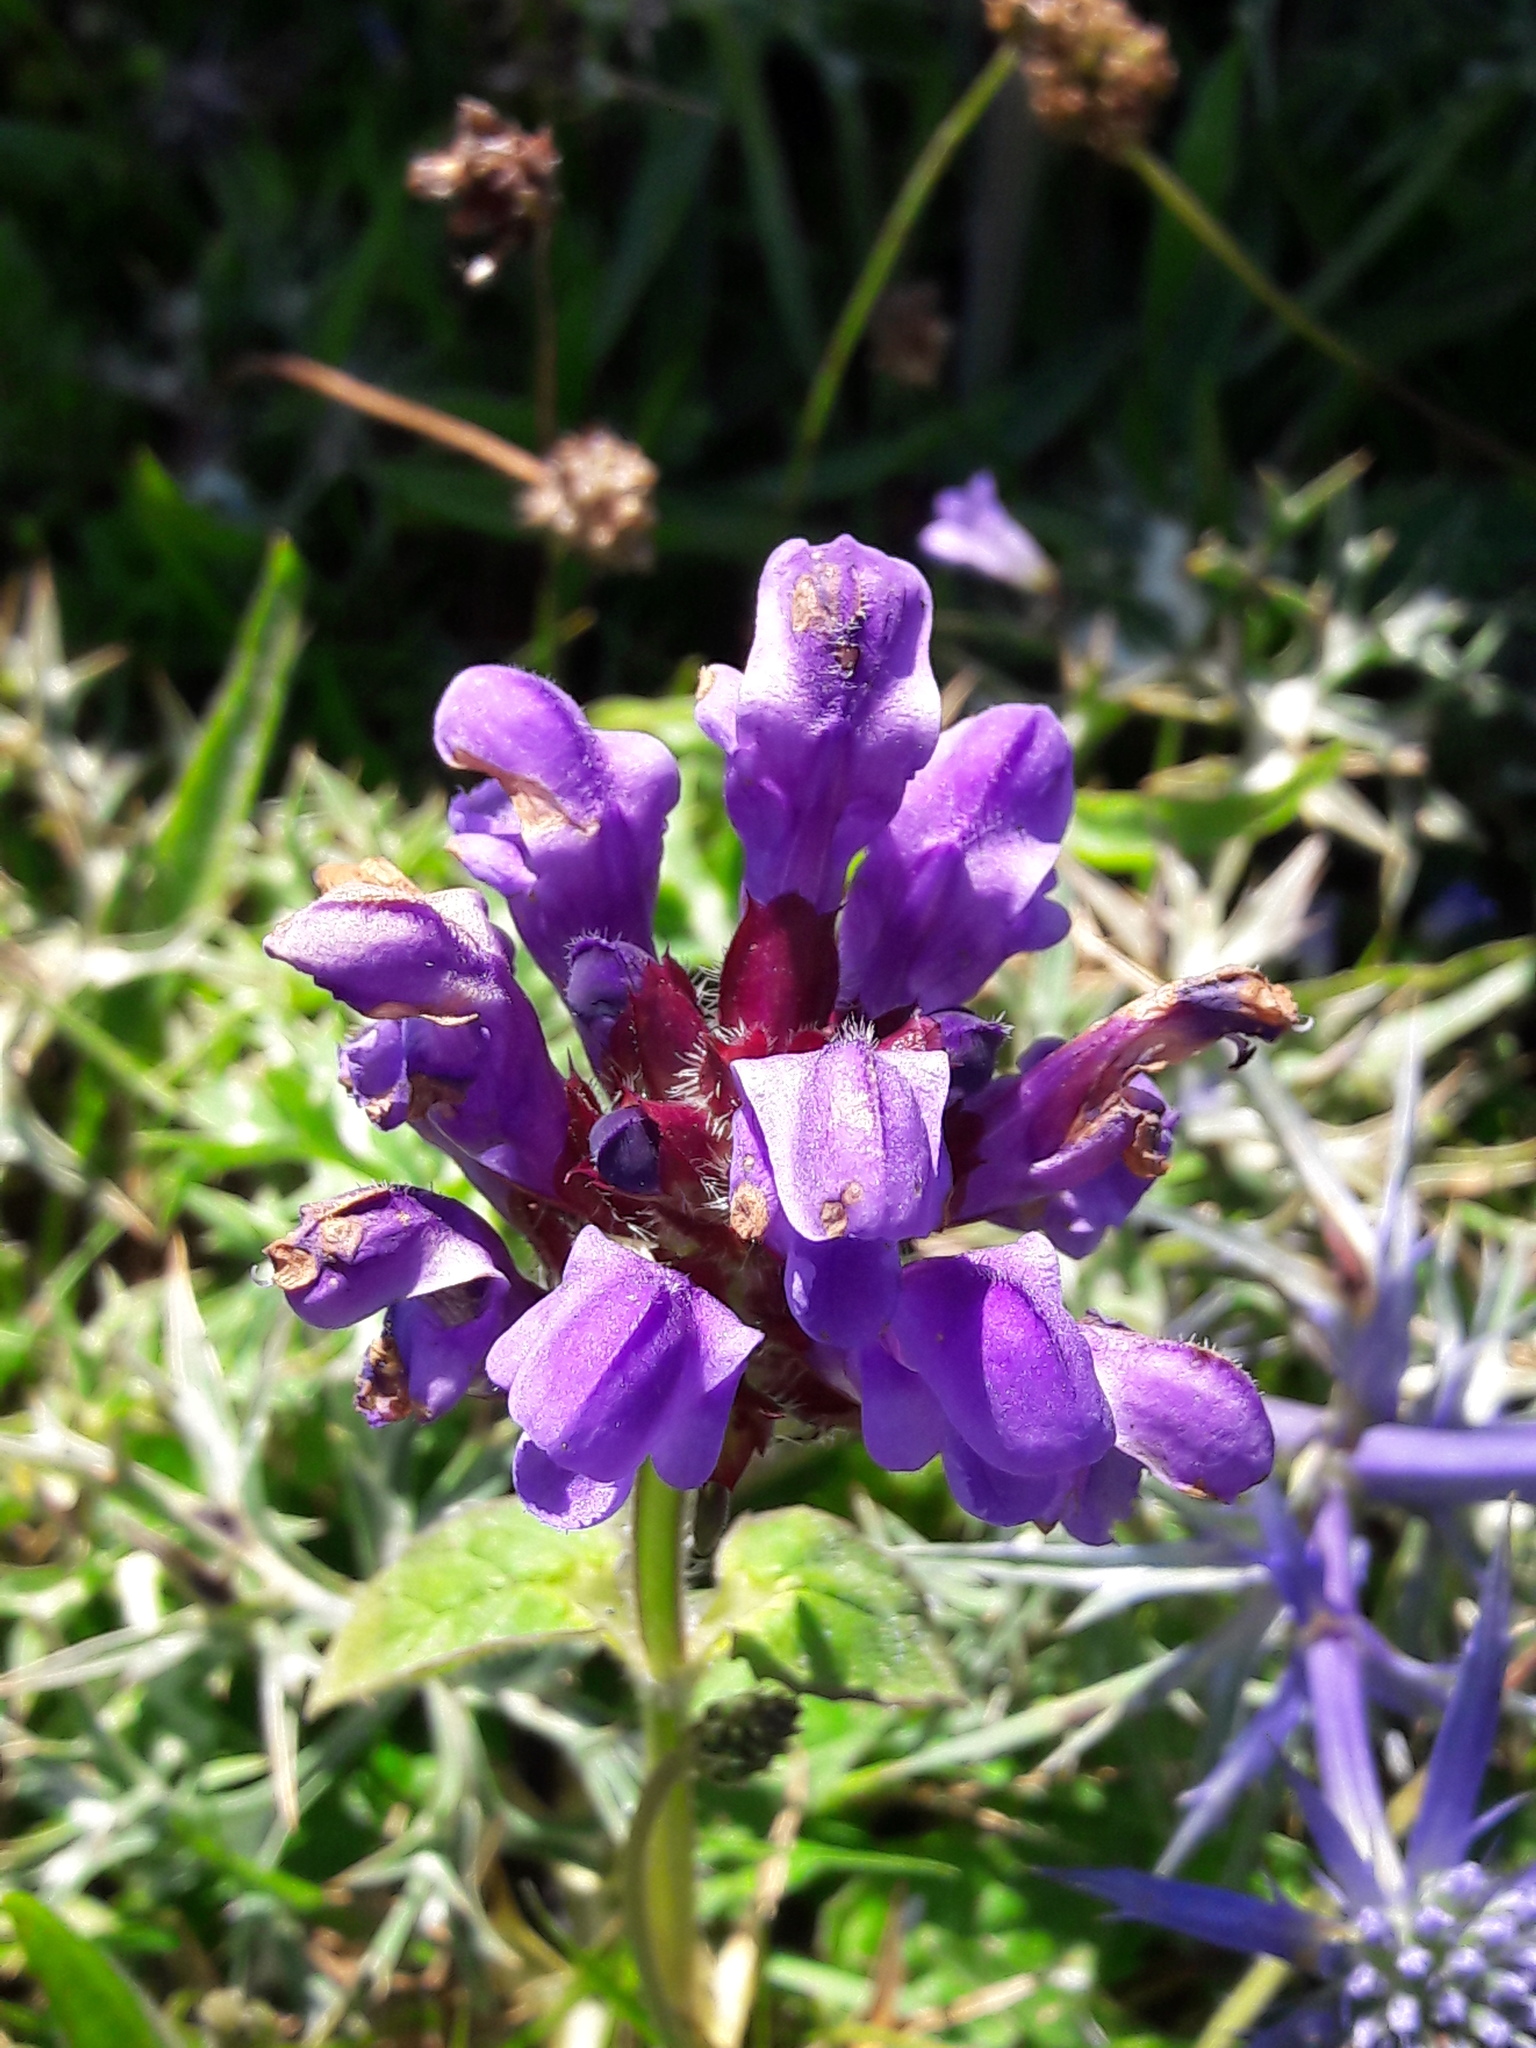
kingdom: Plantae
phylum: Tracheophyta
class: Magnoliopsida
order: Lamiales
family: Lamiaceae
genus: Prunella
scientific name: Prunella grandiflora
